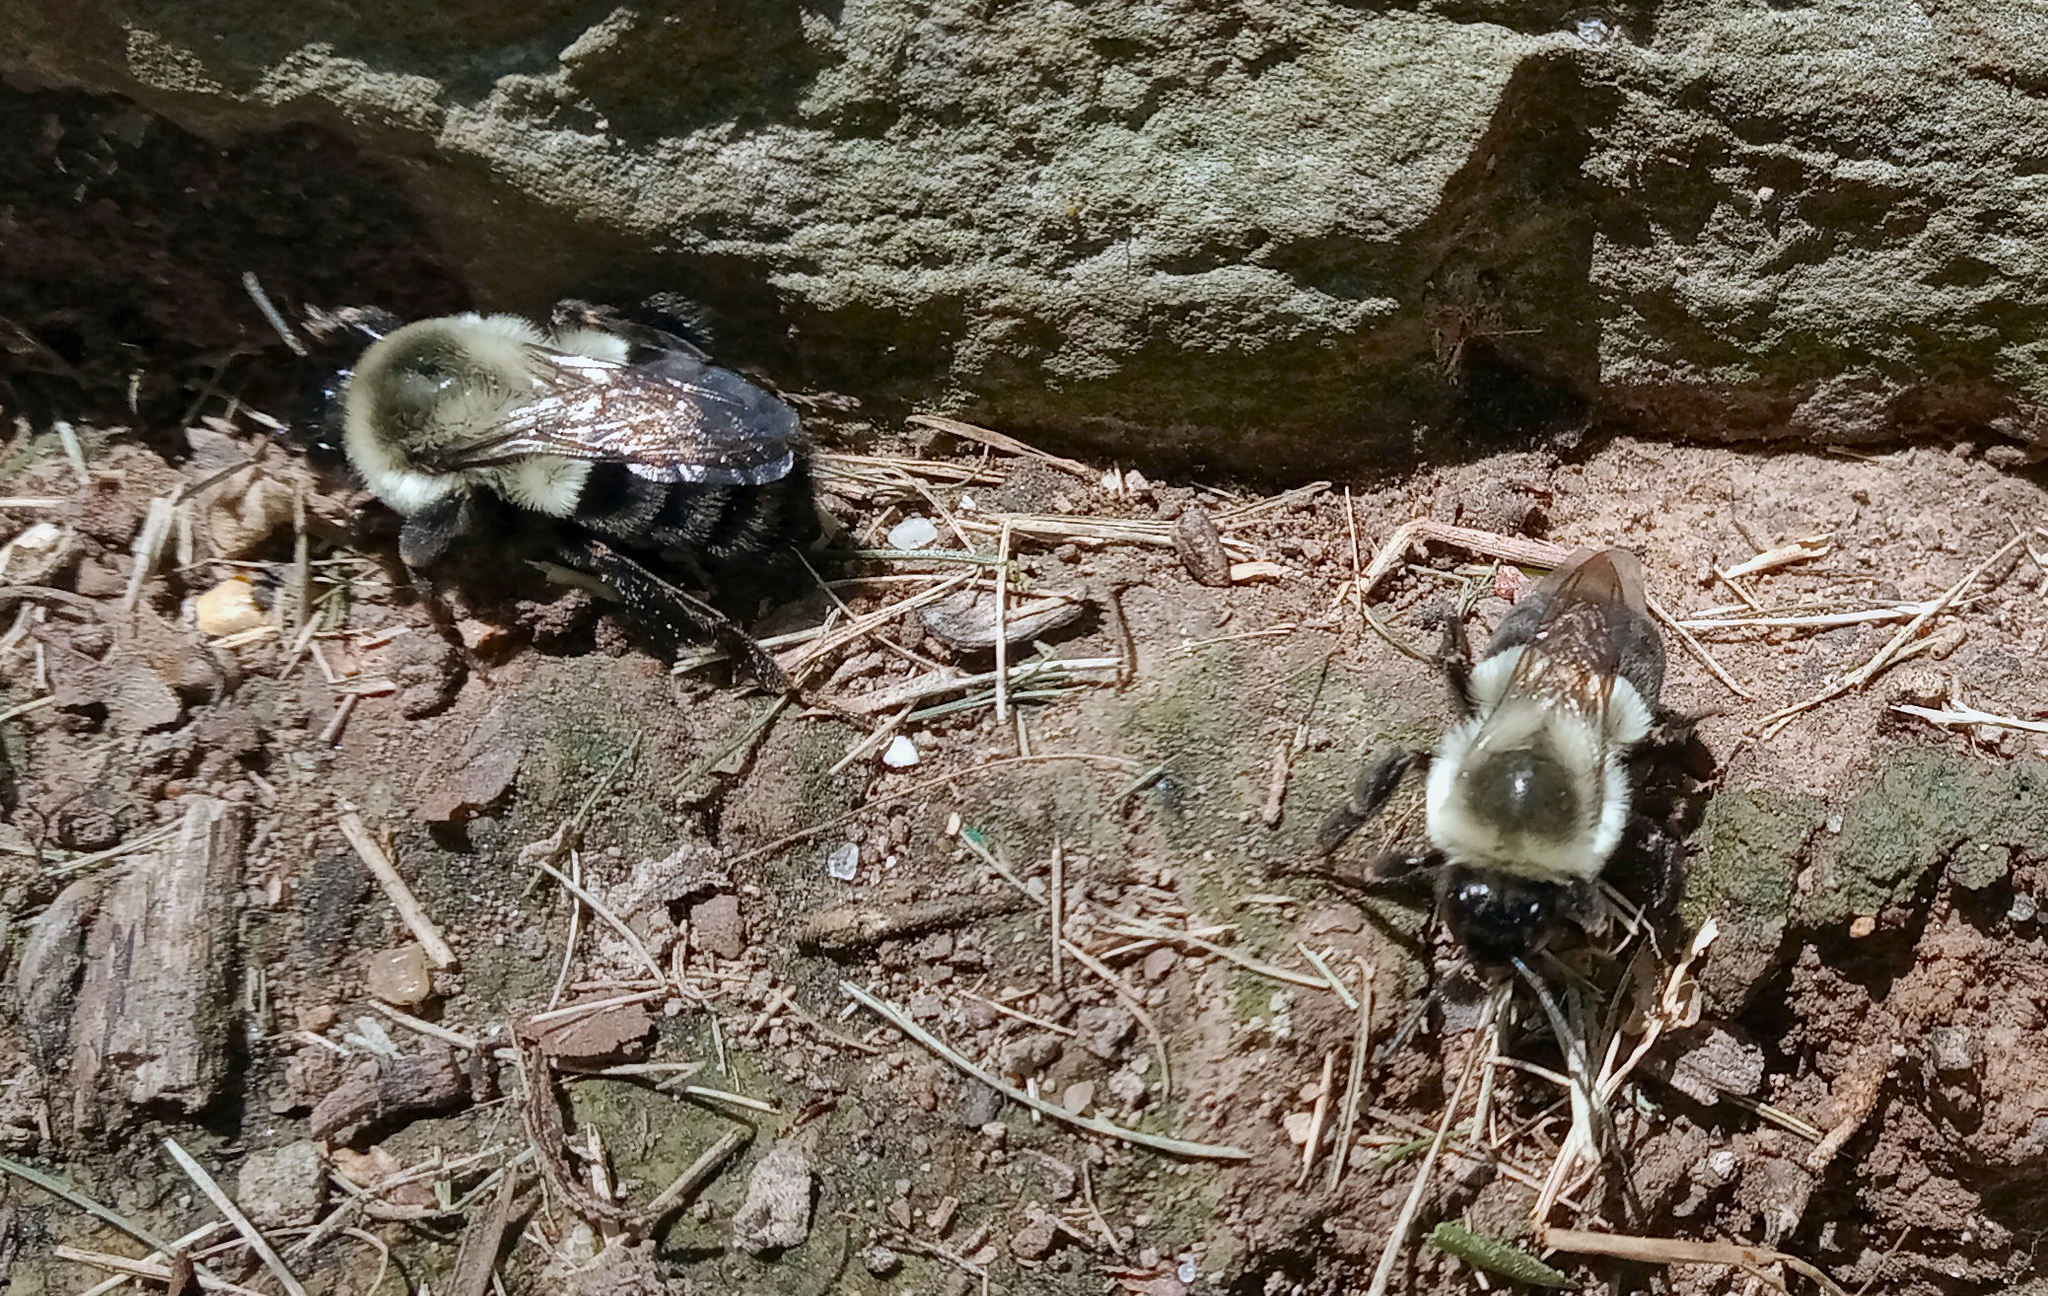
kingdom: Animalia
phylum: Arthropoda
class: Insecta
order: Hymenoptera
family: Apidae
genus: Bombus
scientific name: Bombus impatiens
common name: Common eastern bumble bee
